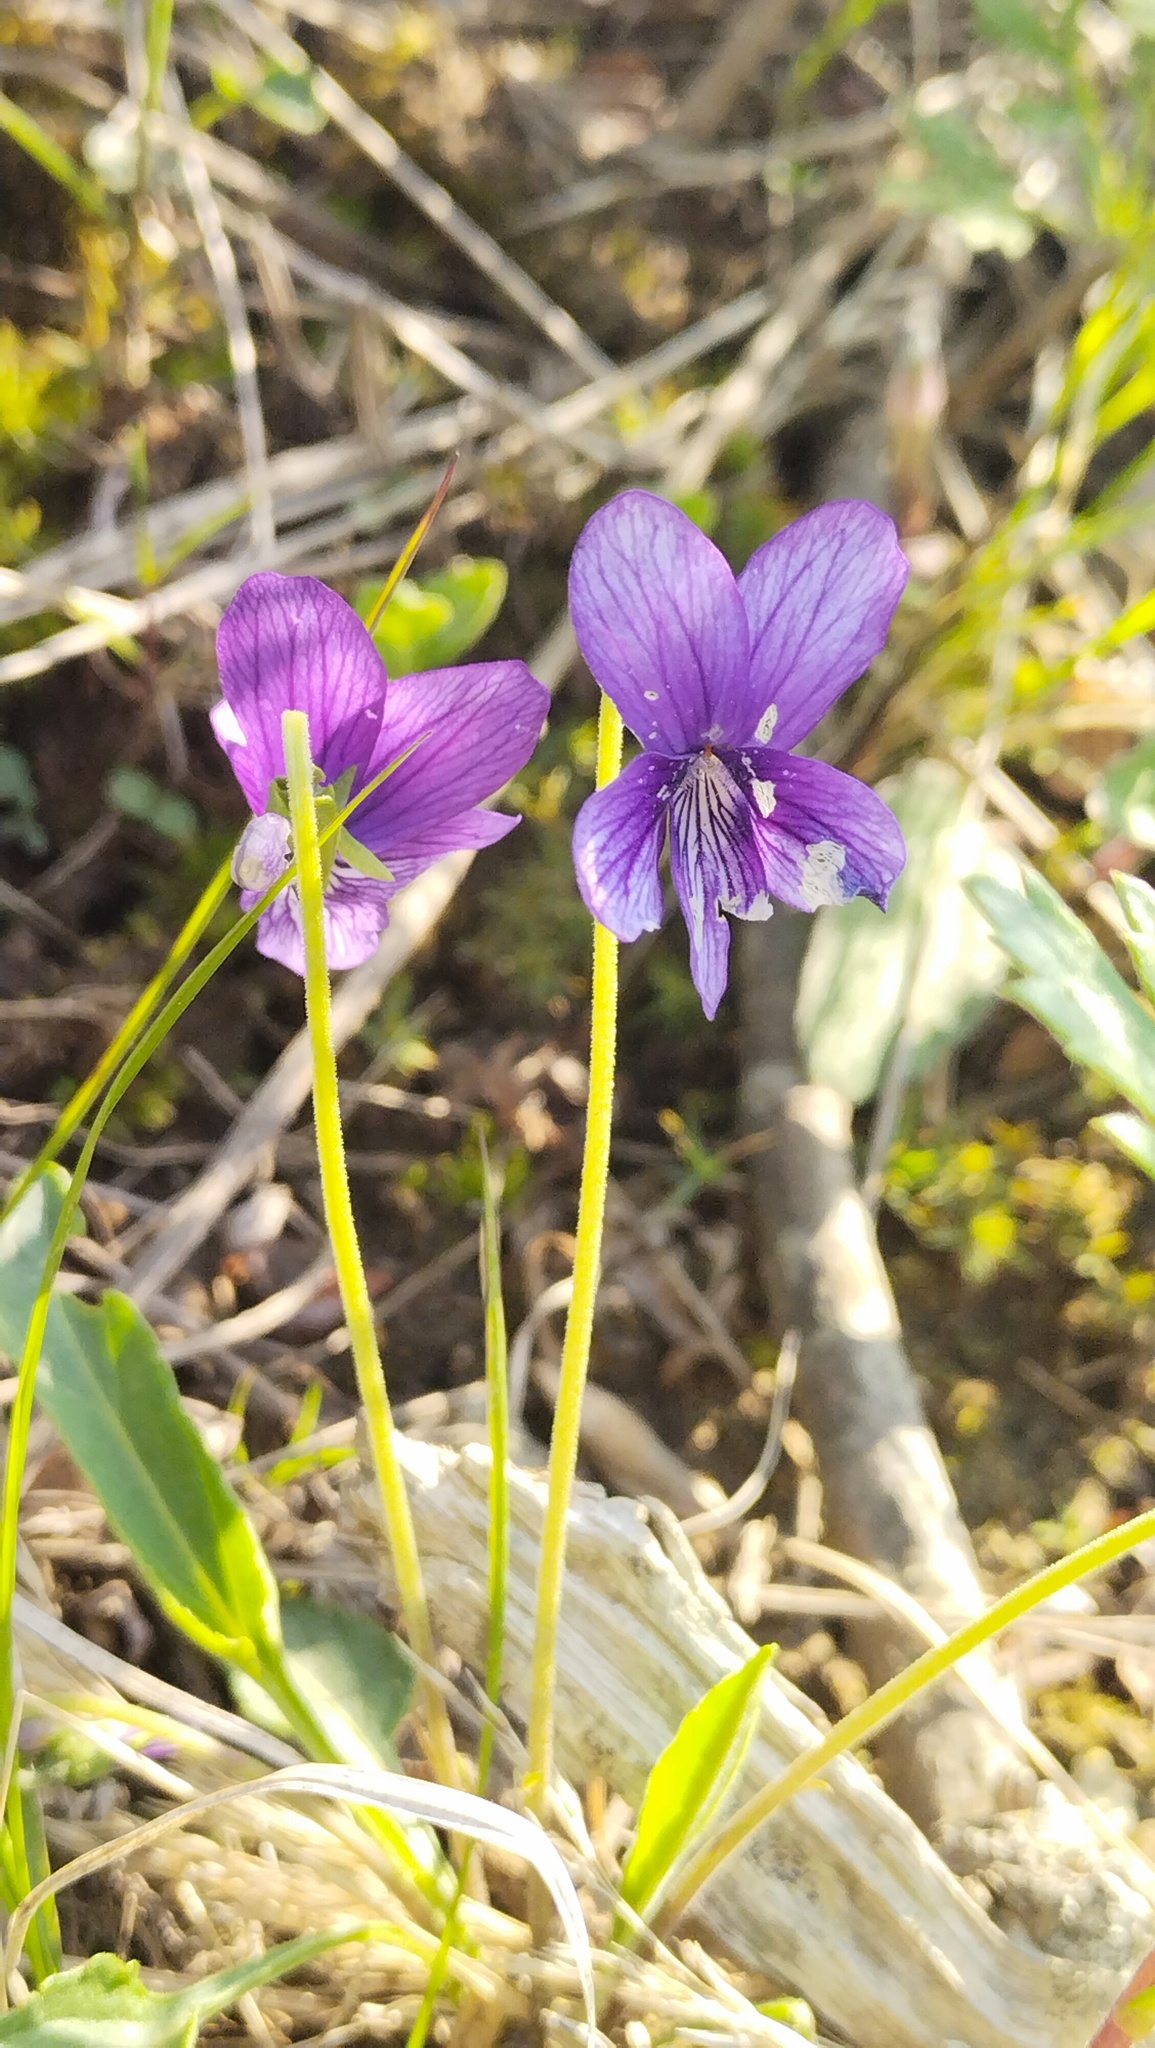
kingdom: Plantae
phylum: Tracheophyta
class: Magnoliopsida
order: Malpighiales
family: Violaceae
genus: Viola
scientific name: Viola mandshurica
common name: Manchuria violet
